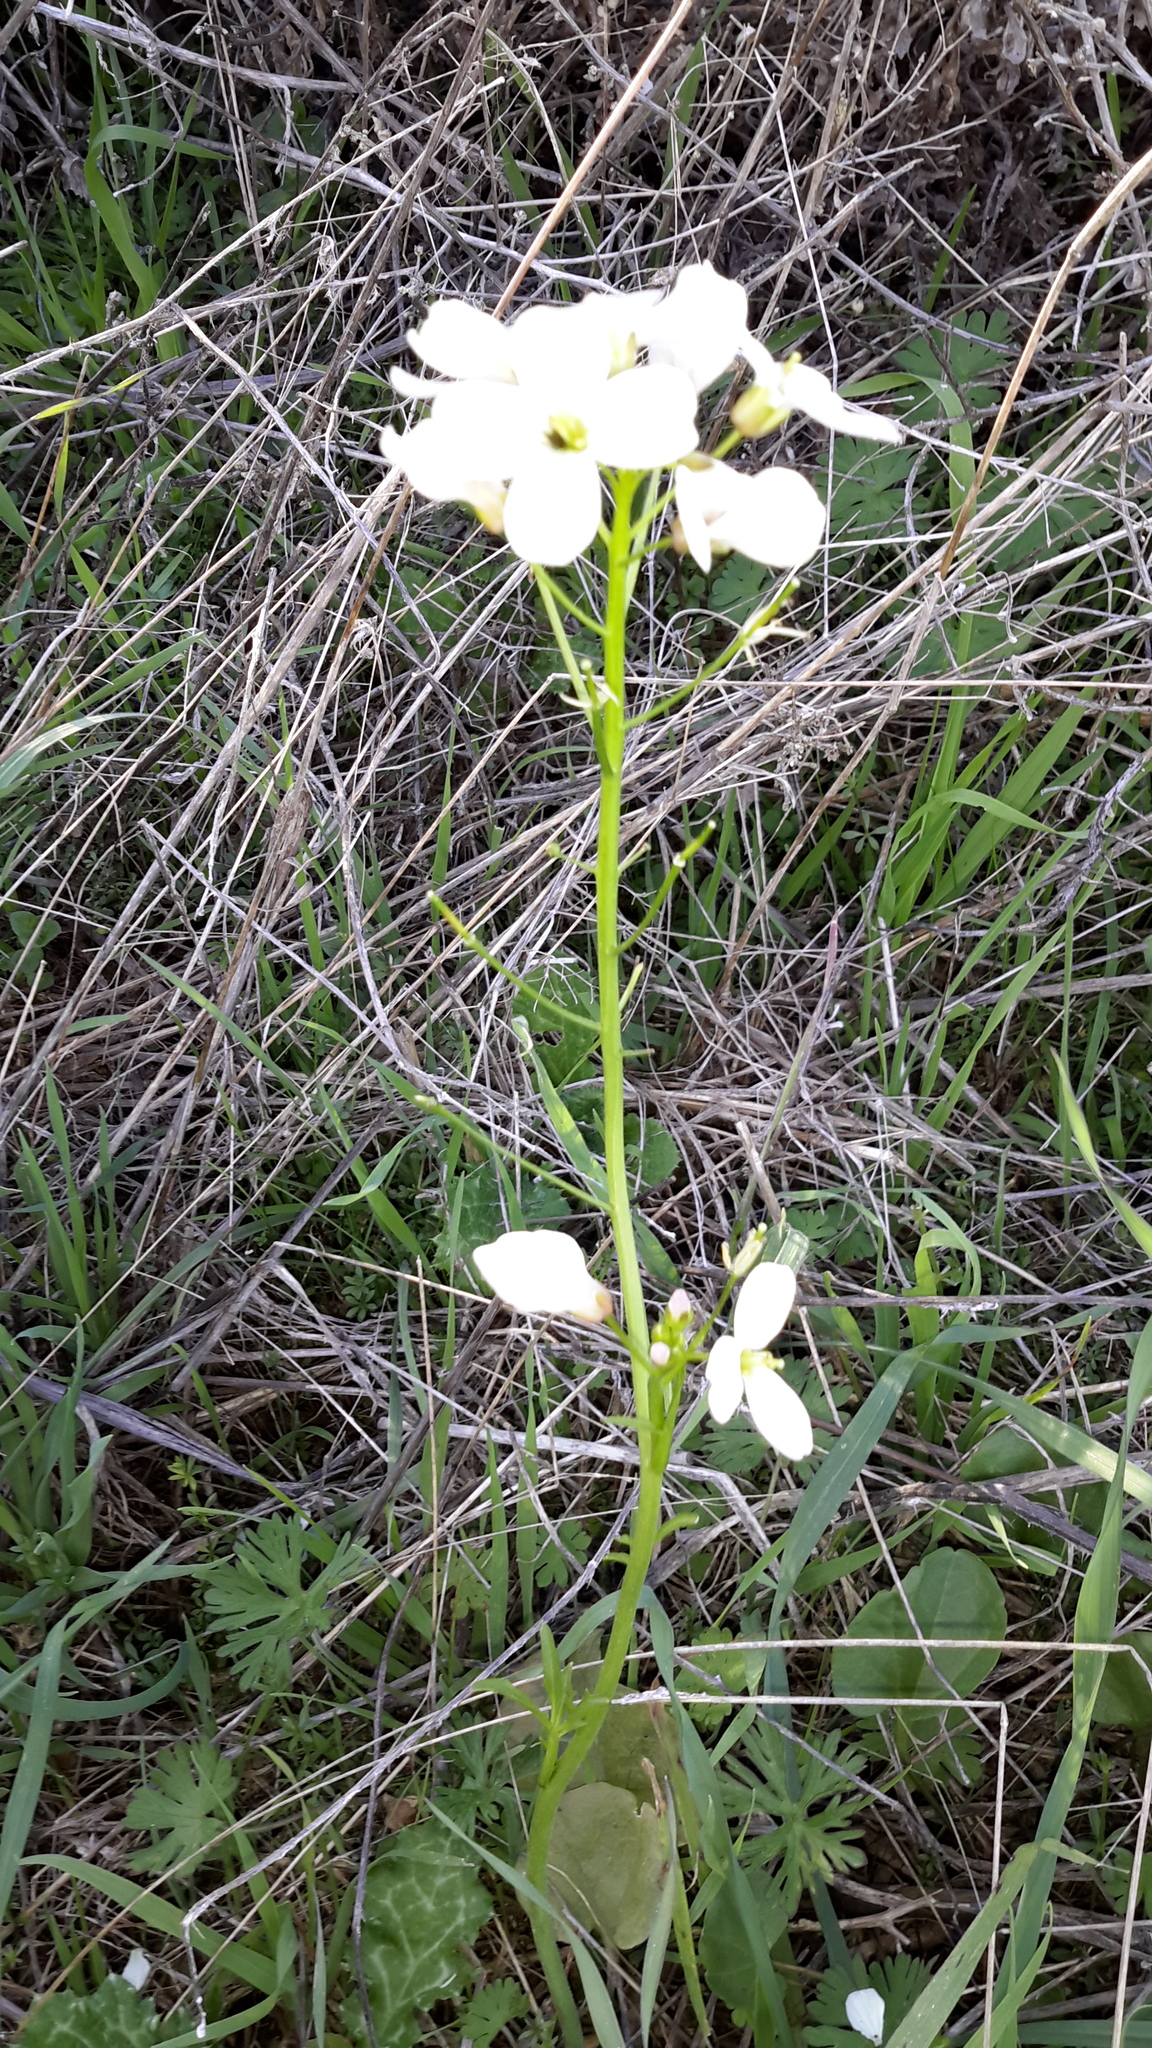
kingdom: Plantae
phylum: Tracheophyta
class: Magnoliopsida
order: Brassicales
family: Brassicaceae
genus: Cardamine
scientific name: Cardamine californica
